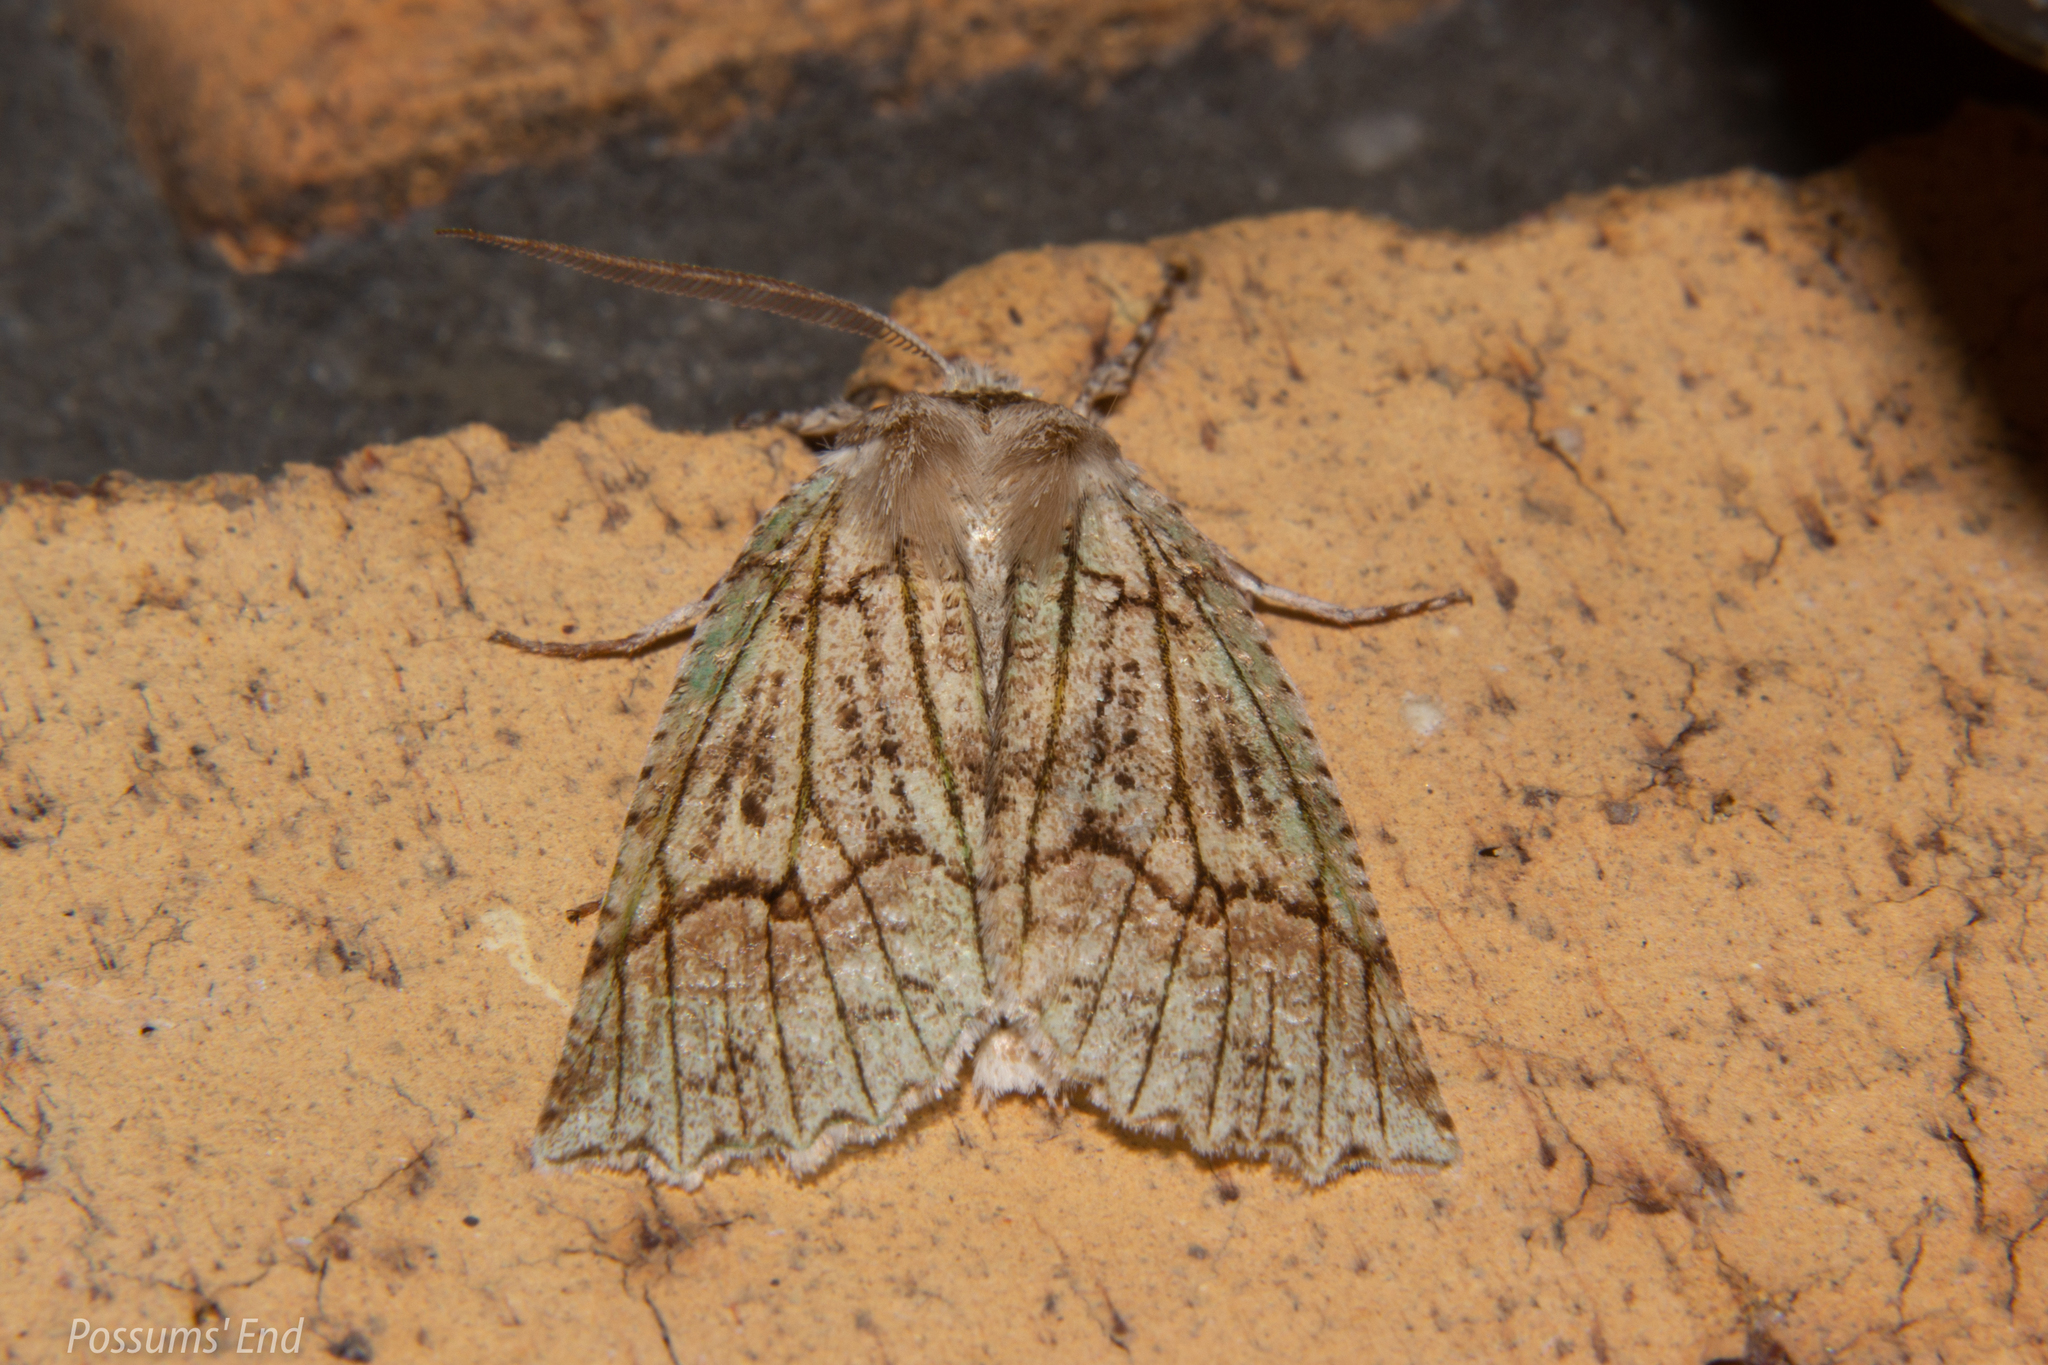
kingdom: Animalia
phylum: Arthropoda
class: Insecta
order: Lepidoptera
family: Geometridae
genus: Declana
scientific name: Declana floccosa
